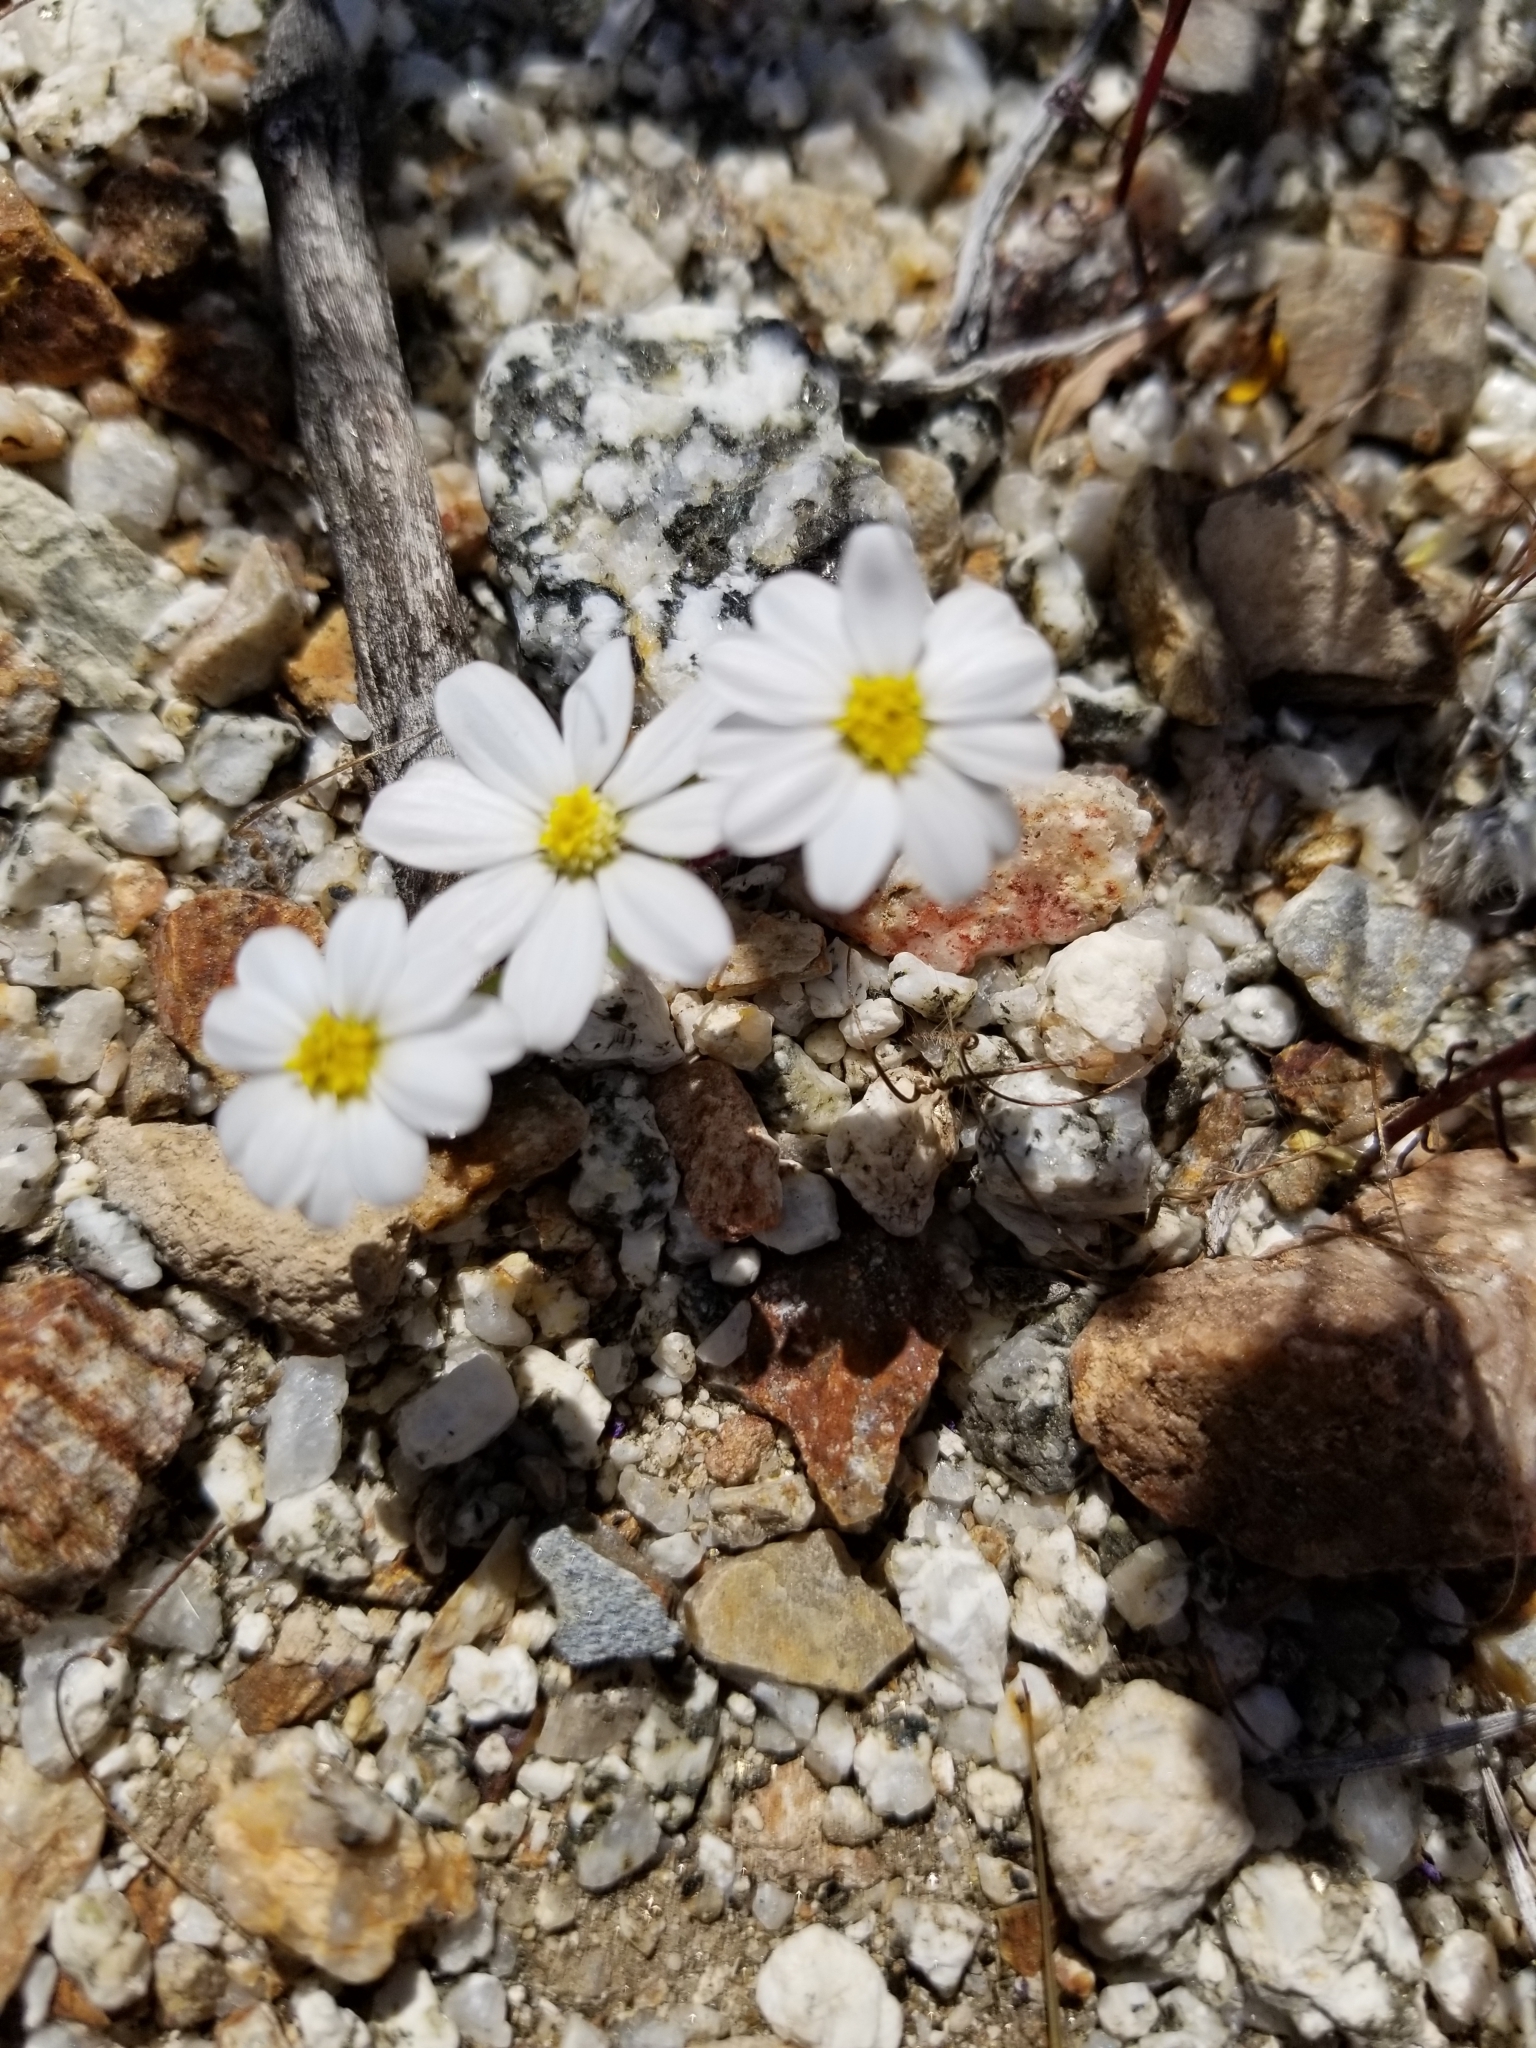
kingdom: Plantae
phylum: Tracheophyta
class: Magnoliopsida
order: Asterales
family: Asteraceae
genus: Monoptilon
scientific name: Monoptilon bellioides
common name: Bristly desertstar
